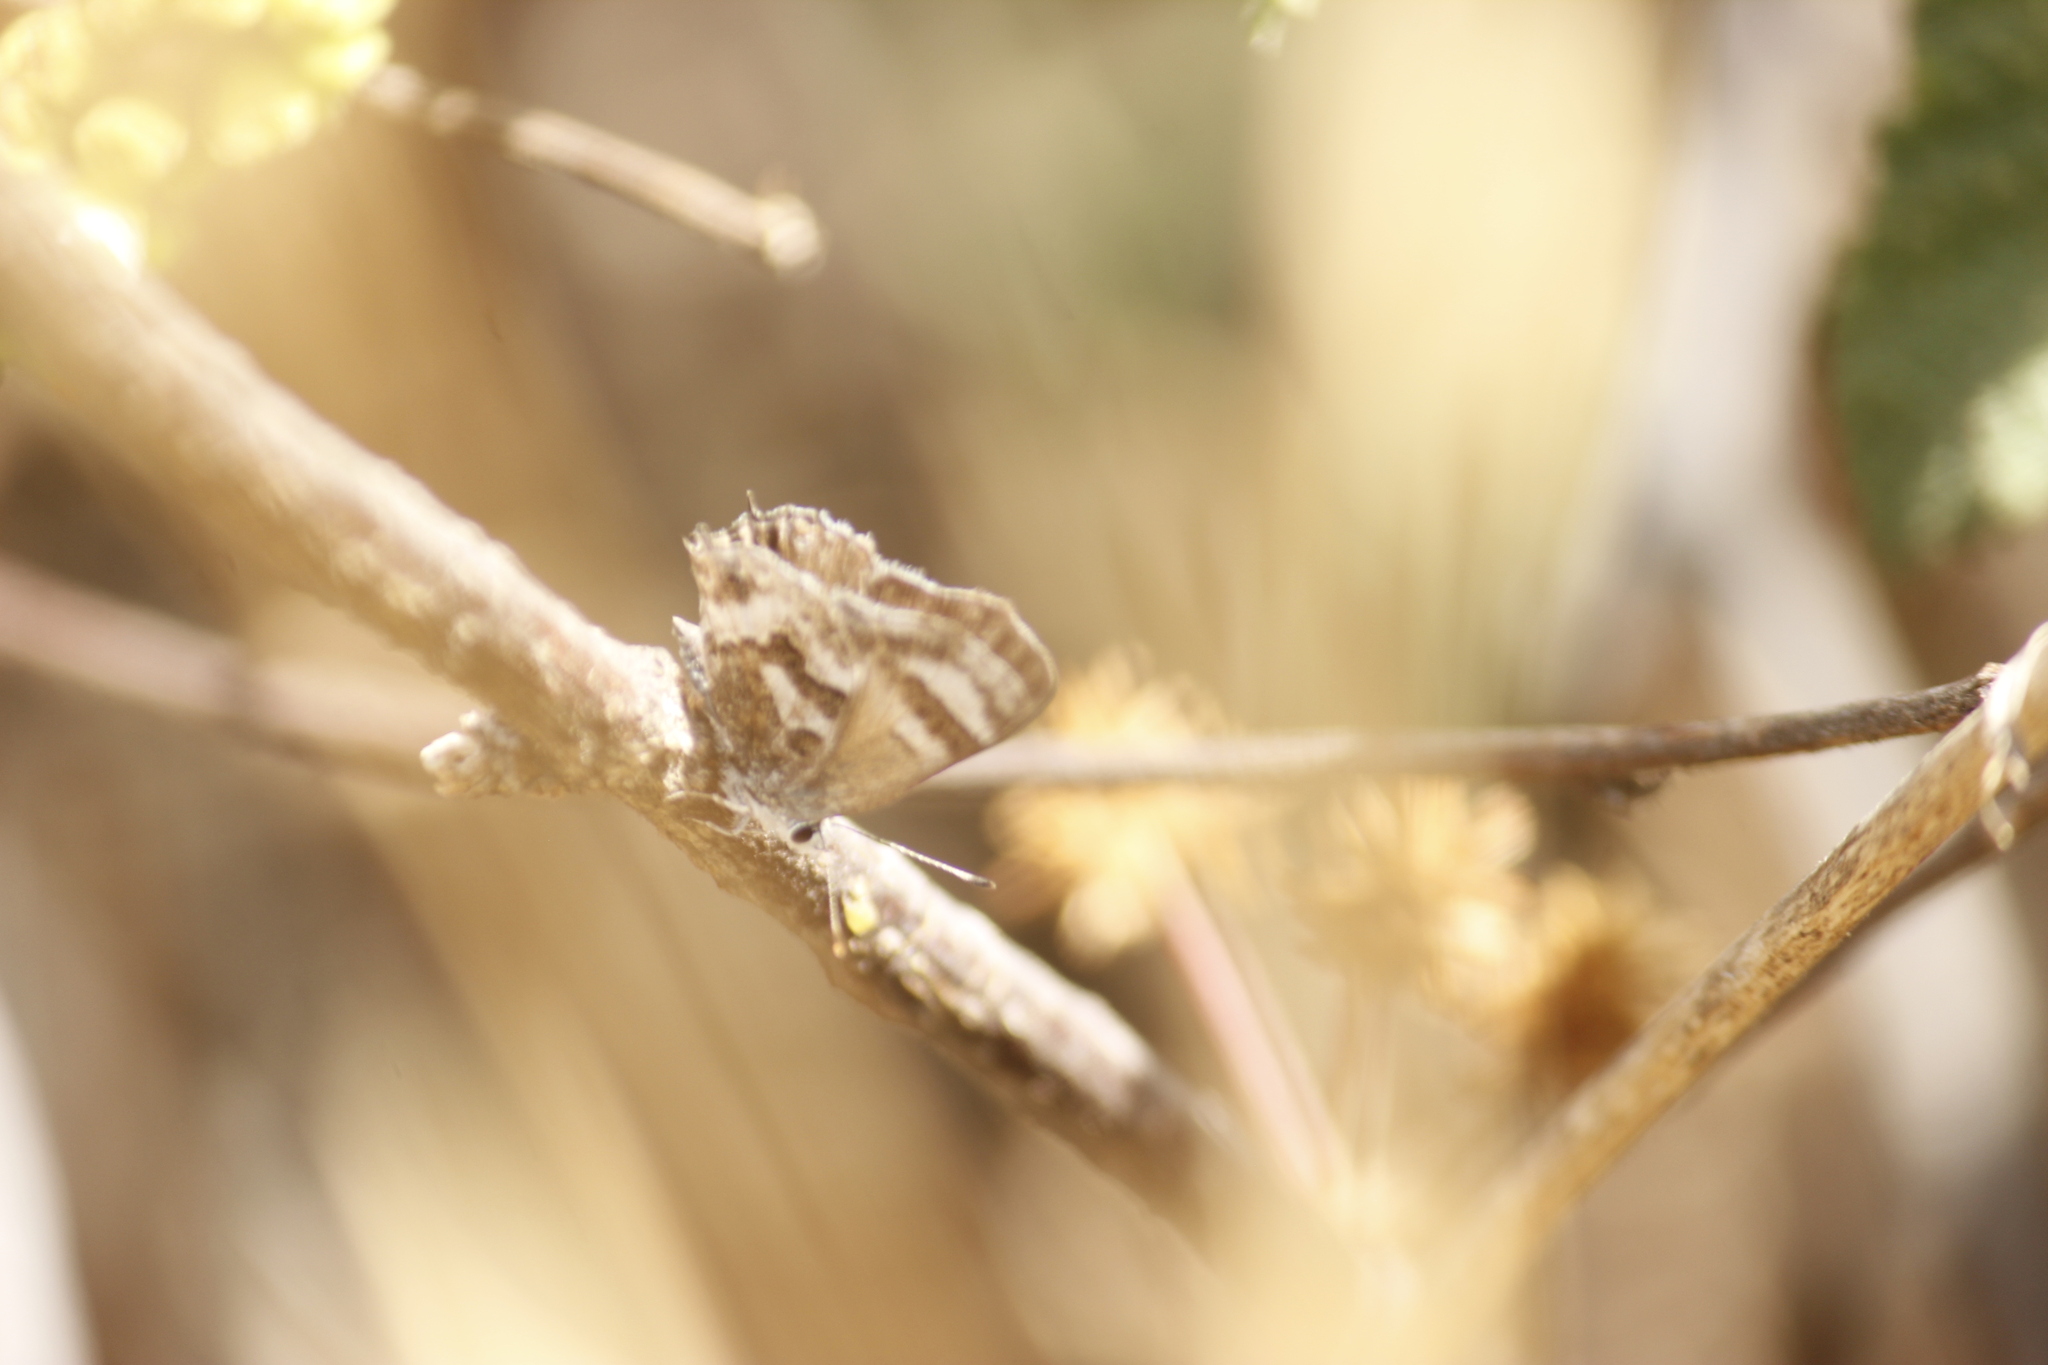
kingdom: Animalia
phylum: Arthropoda
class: Insecta
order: Lepidoptera
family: Lycaenidae
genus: Strymon
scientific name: Strymon
